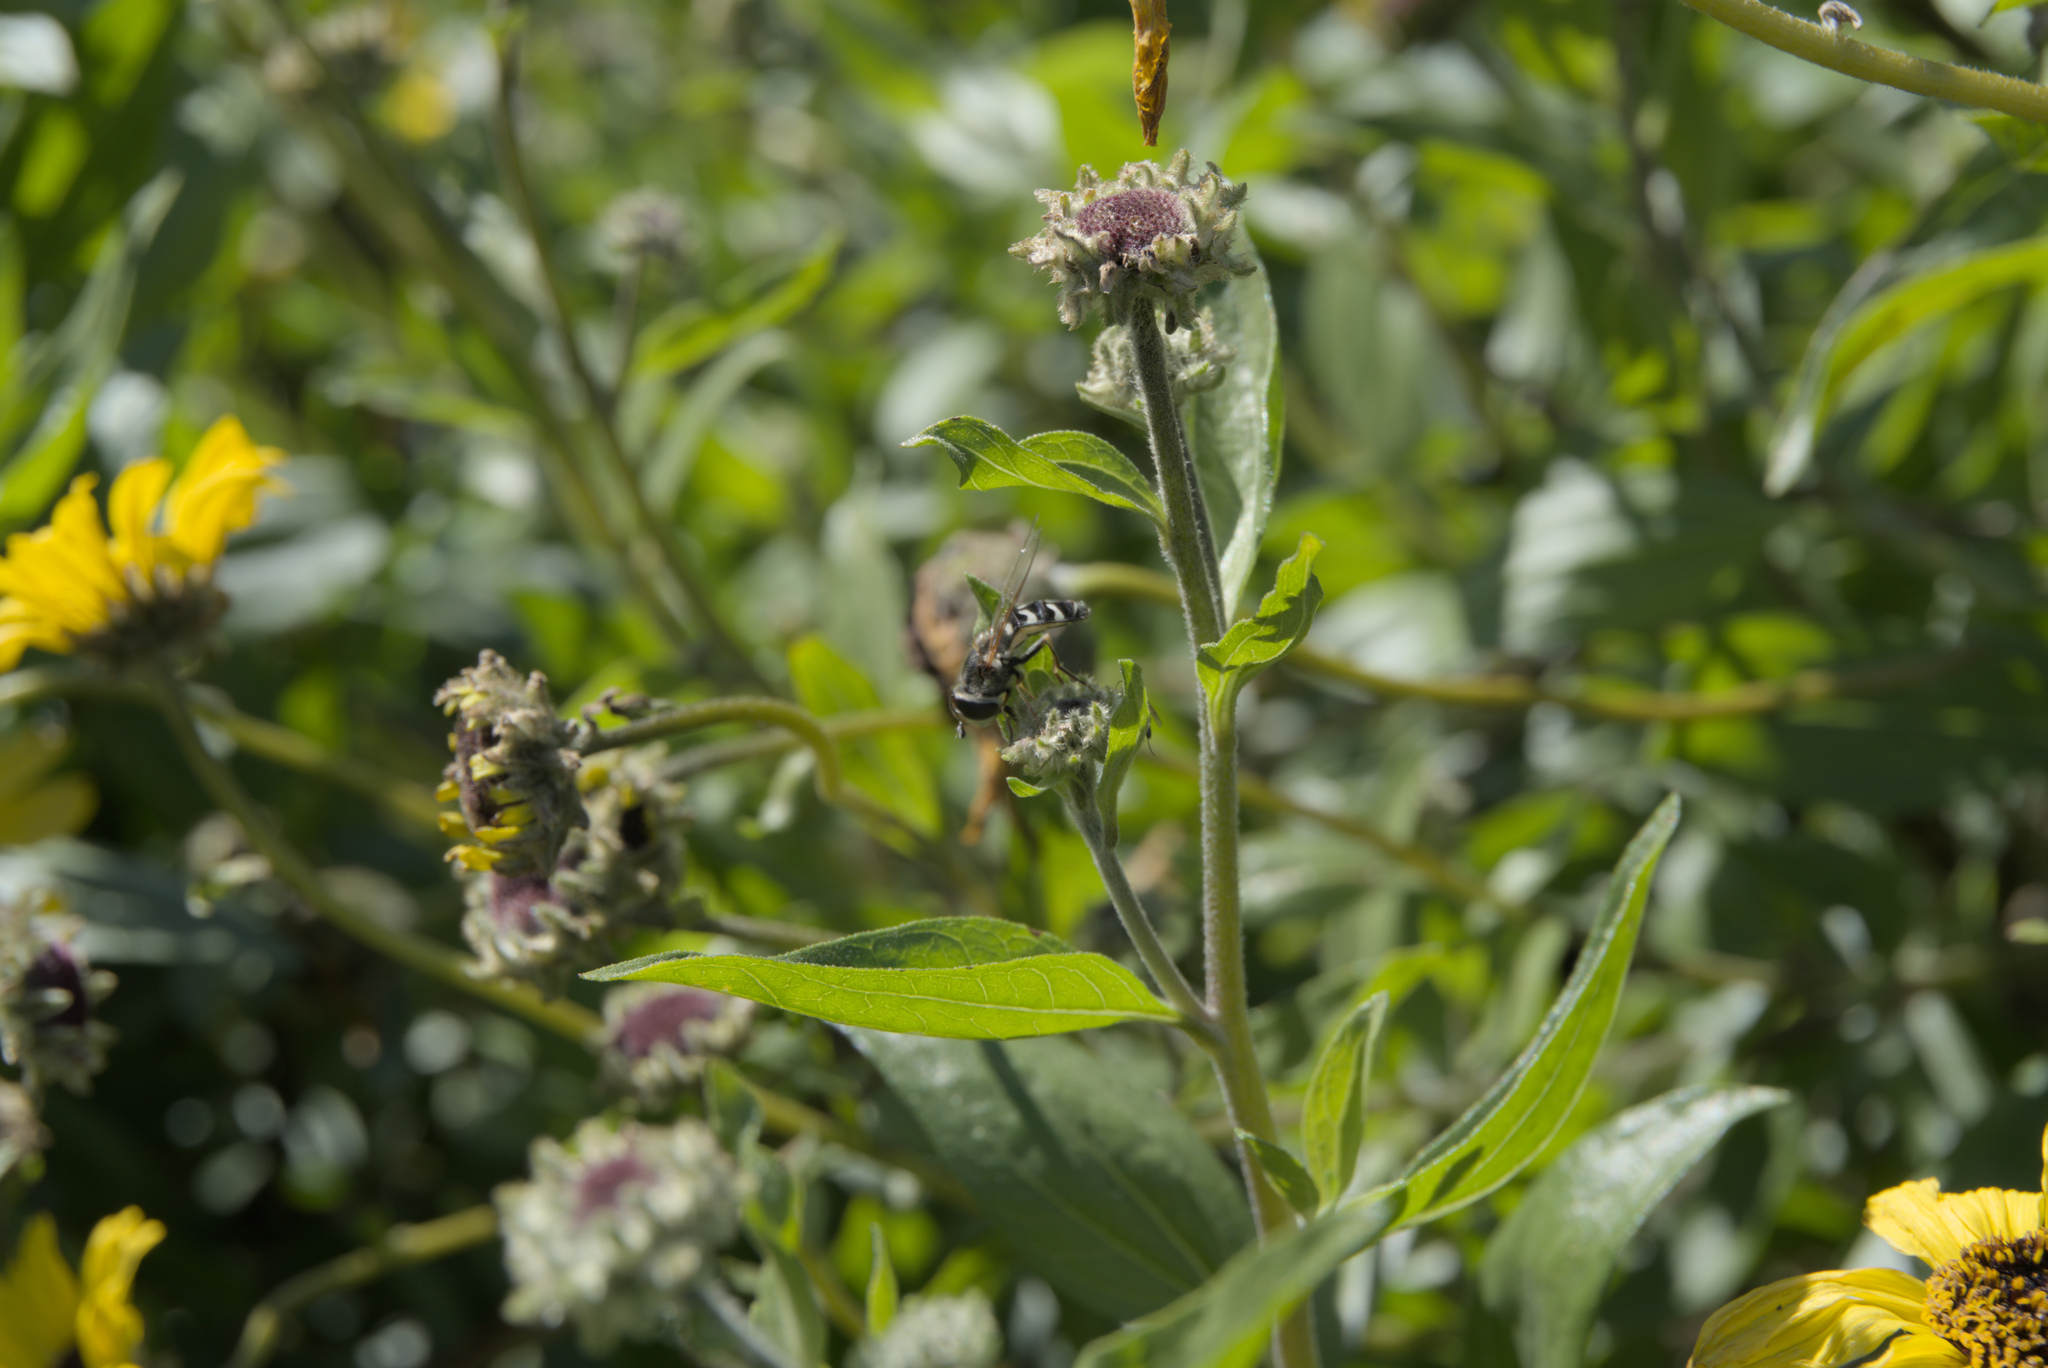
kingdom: Animalia
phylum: Arthropoda
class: Insecta
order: Diptera
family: Syrphidae
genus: Scaeva
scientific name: Scaeva affinis
